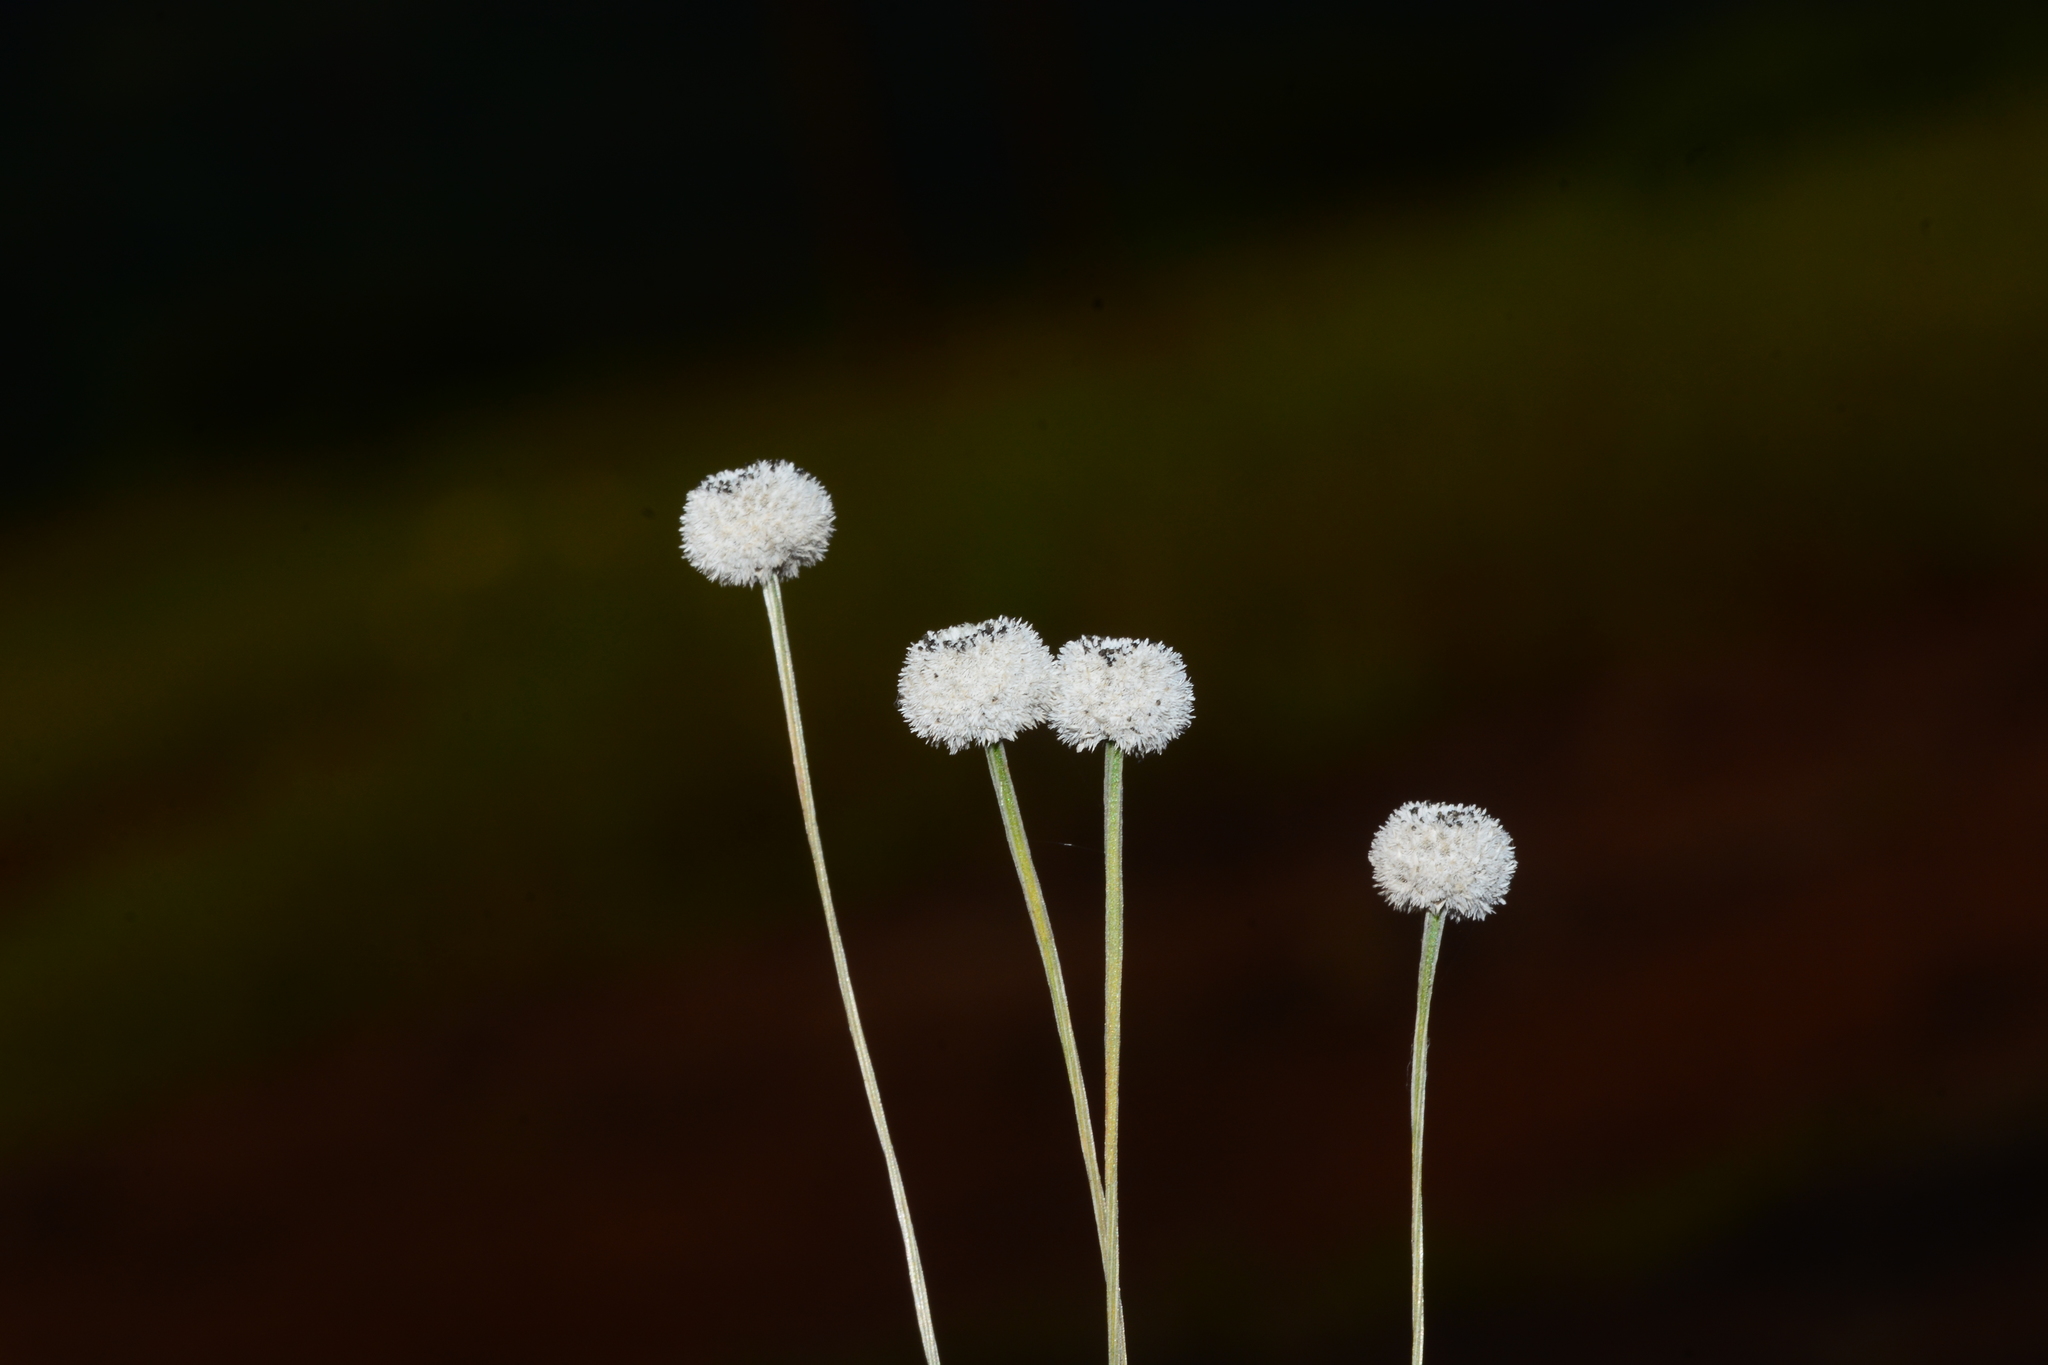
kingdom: Plantae
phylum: Tracheophyta
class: Liliopsida
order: Poales
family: Eriocaulaceae
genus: Eriocaulon
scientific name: Eriocaulon sedgwickii
